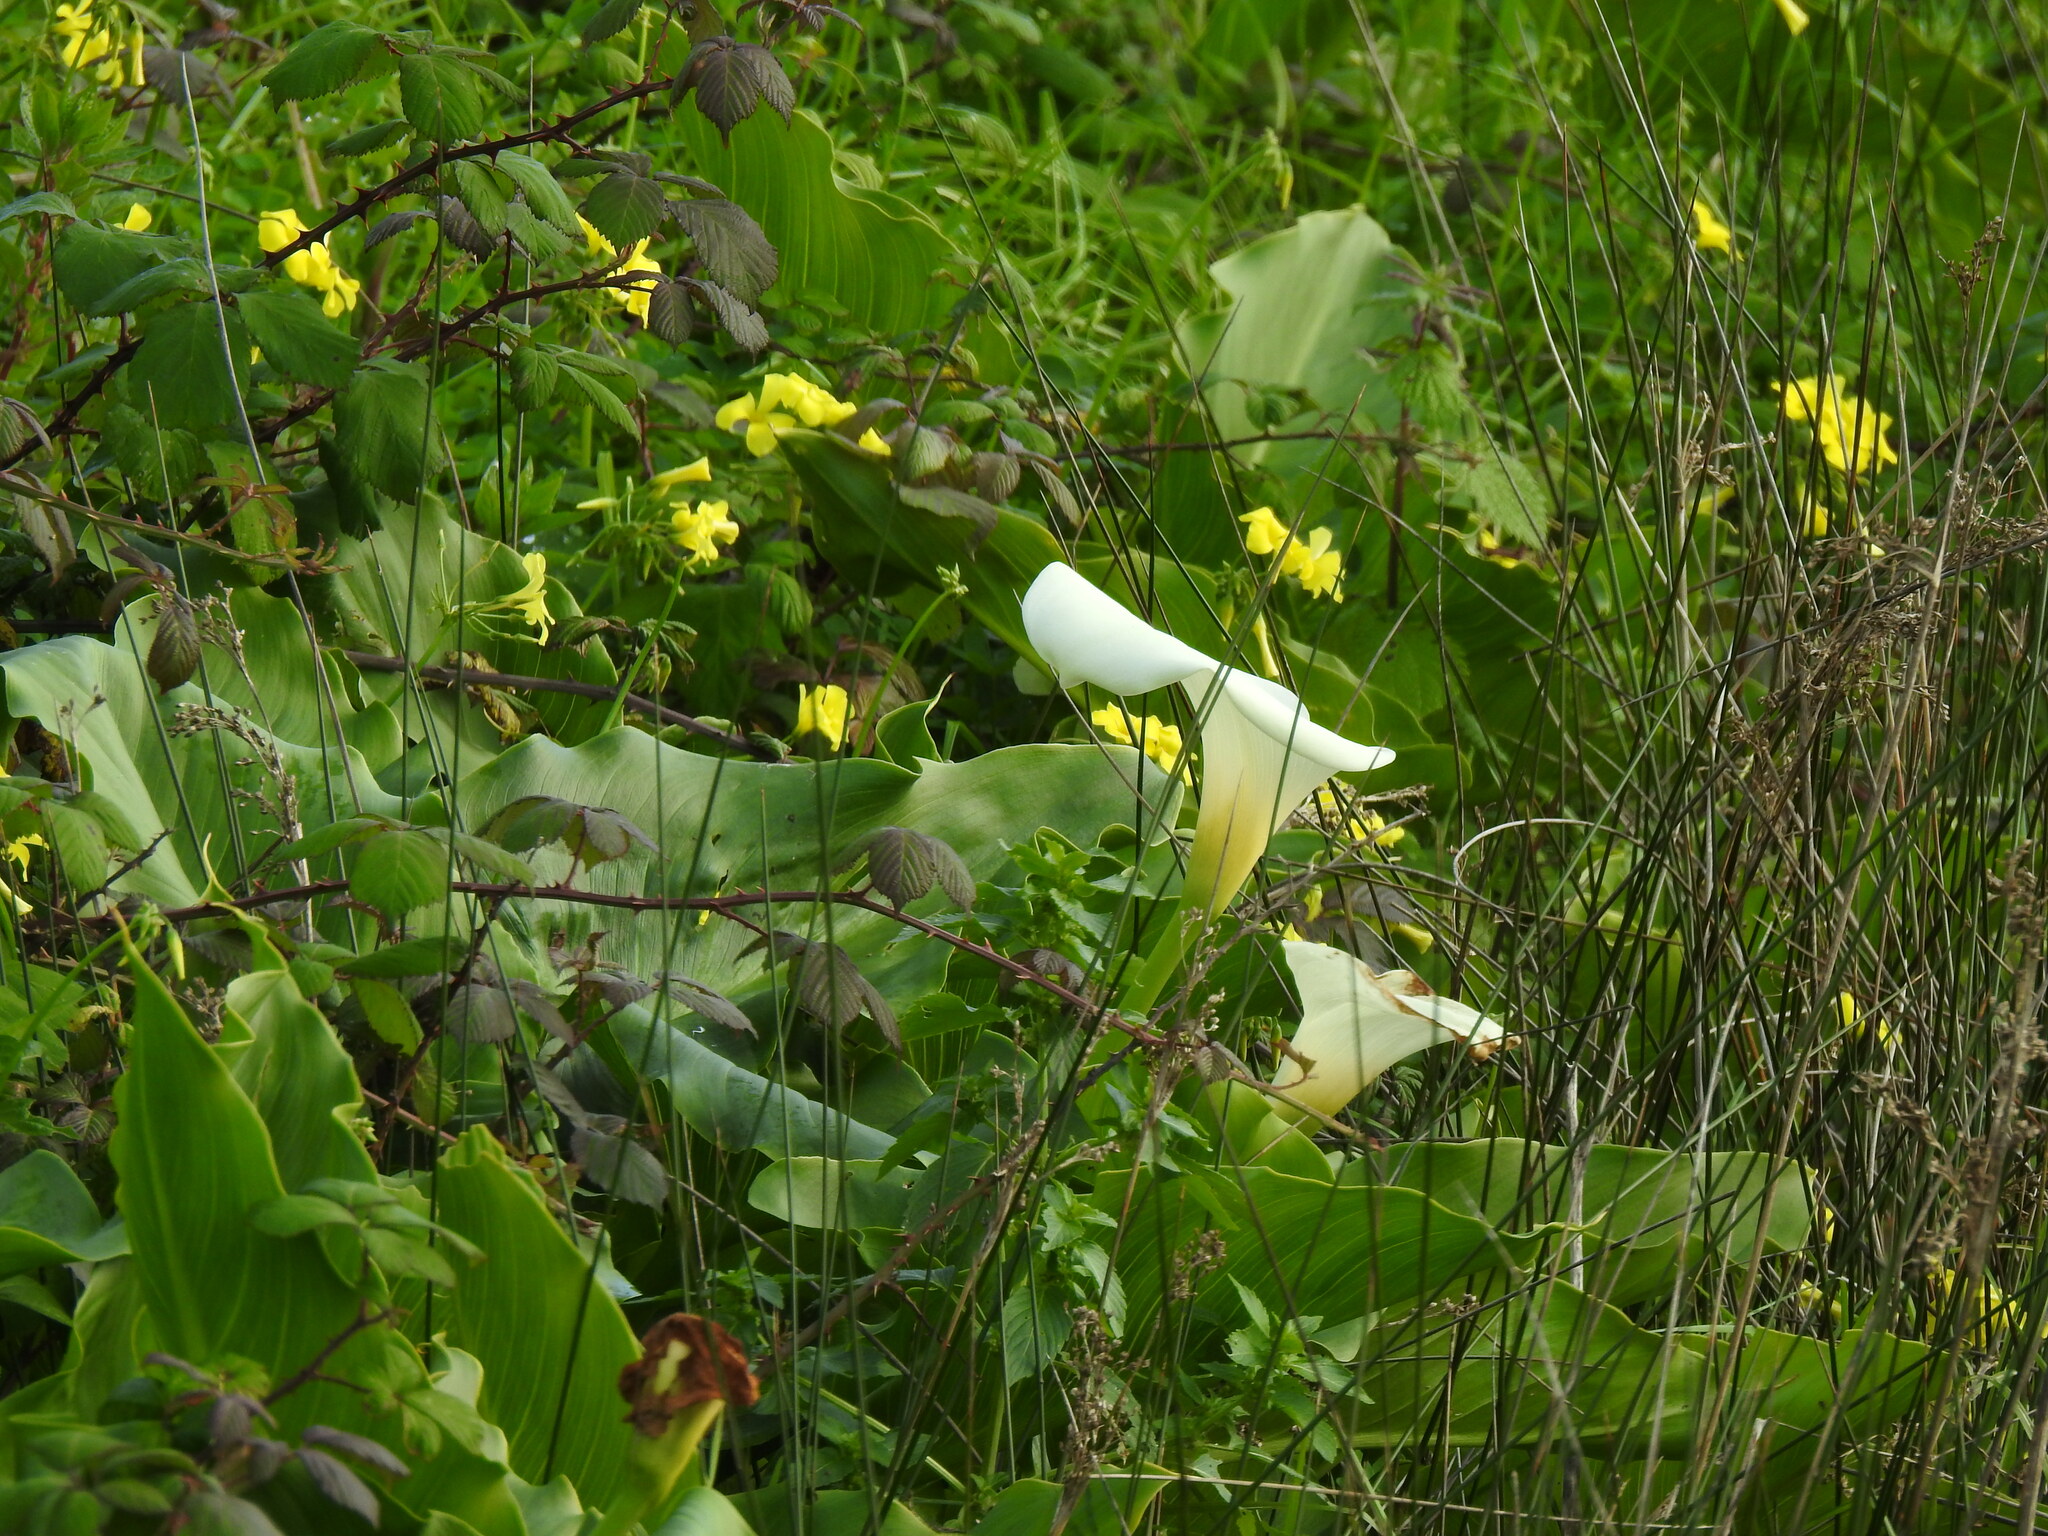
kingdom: Plantae
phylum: Tracheophyta
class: Liliopsida
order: Alismatales
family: Araceae
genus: Zantedeschia
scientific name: Zantedeschia aethiopica
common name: Altar-lily
